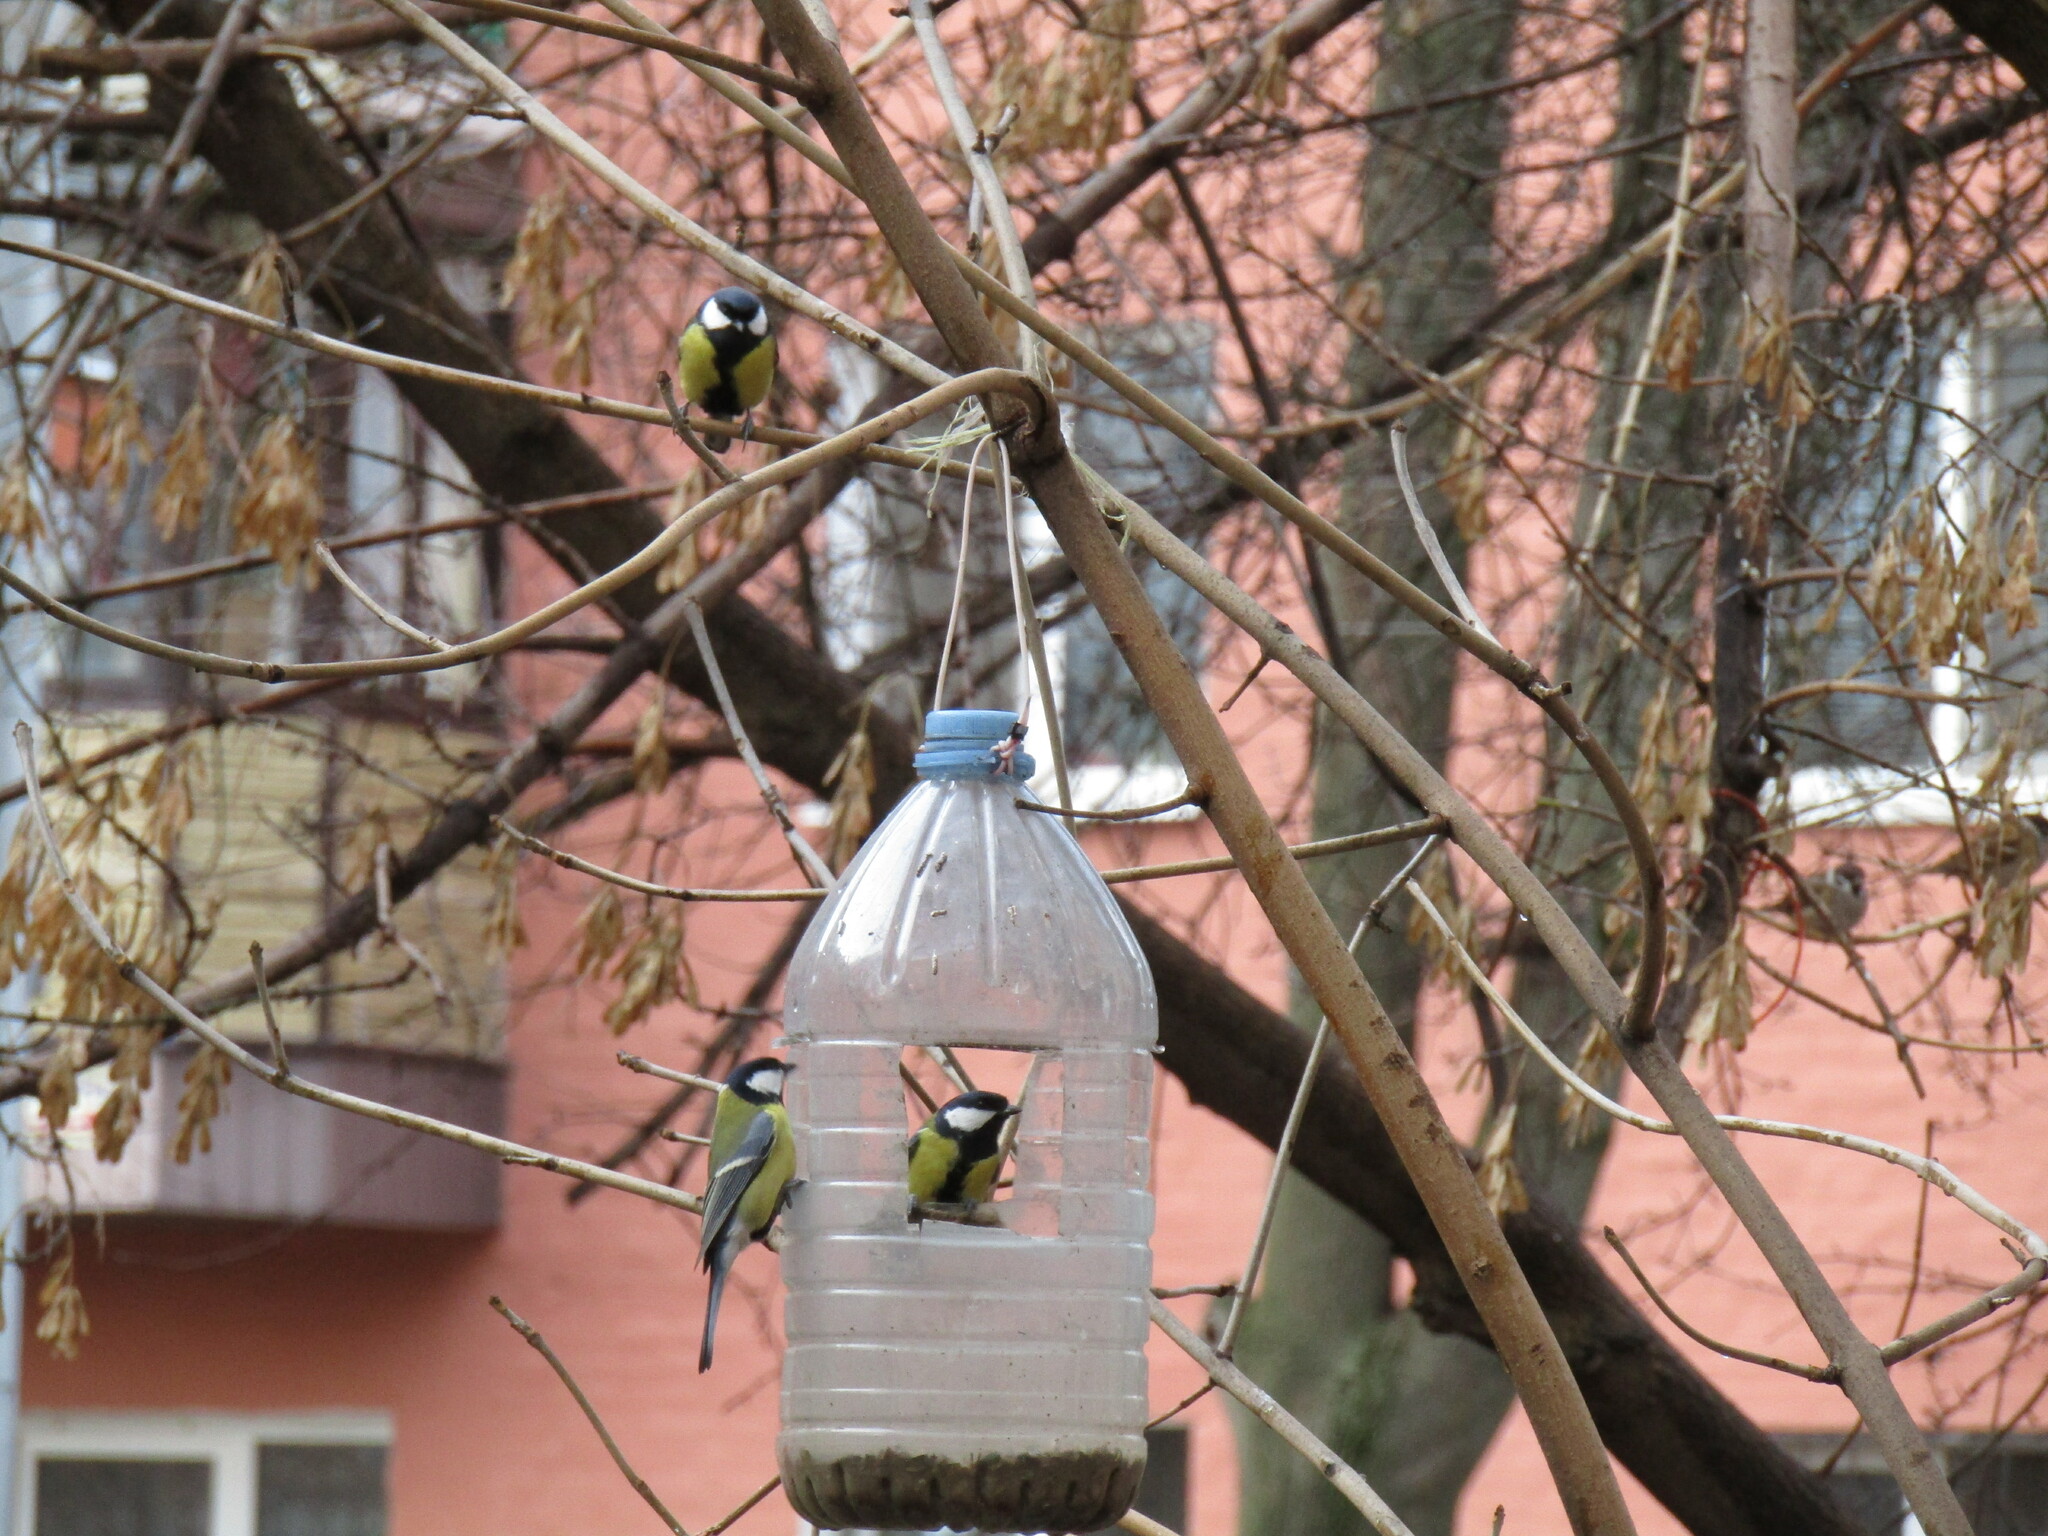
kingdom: Animalia
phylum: Chordata
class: Aves
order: Passeriformes
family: Paridae
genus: Parus
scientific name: Parus major
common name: Great tit
